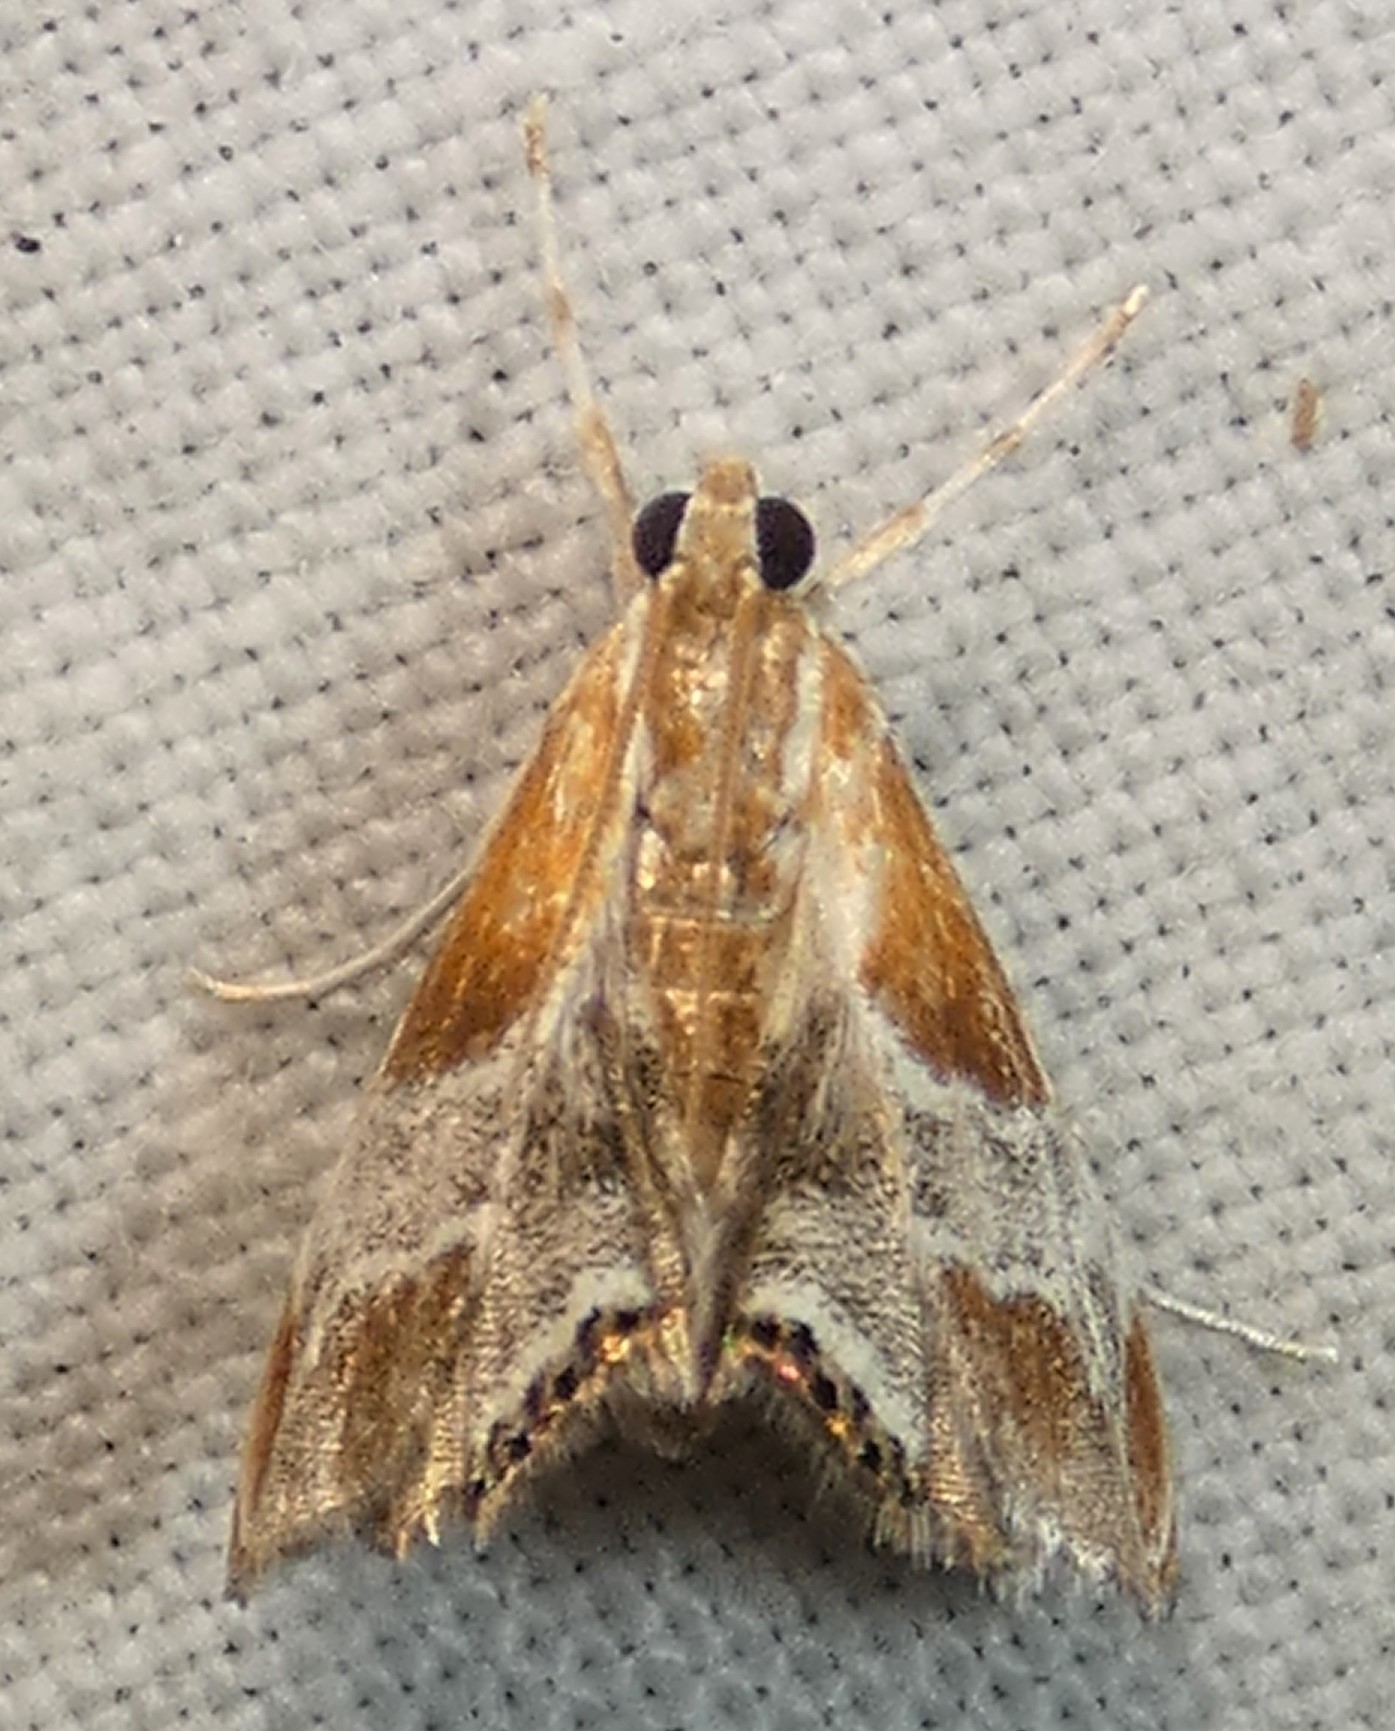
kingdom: Animalia
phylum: Arthropoda
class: Insecta
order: Lepidoptera
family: Crambidae
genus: Chalcoela
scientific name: Chalcoela pegasalis
